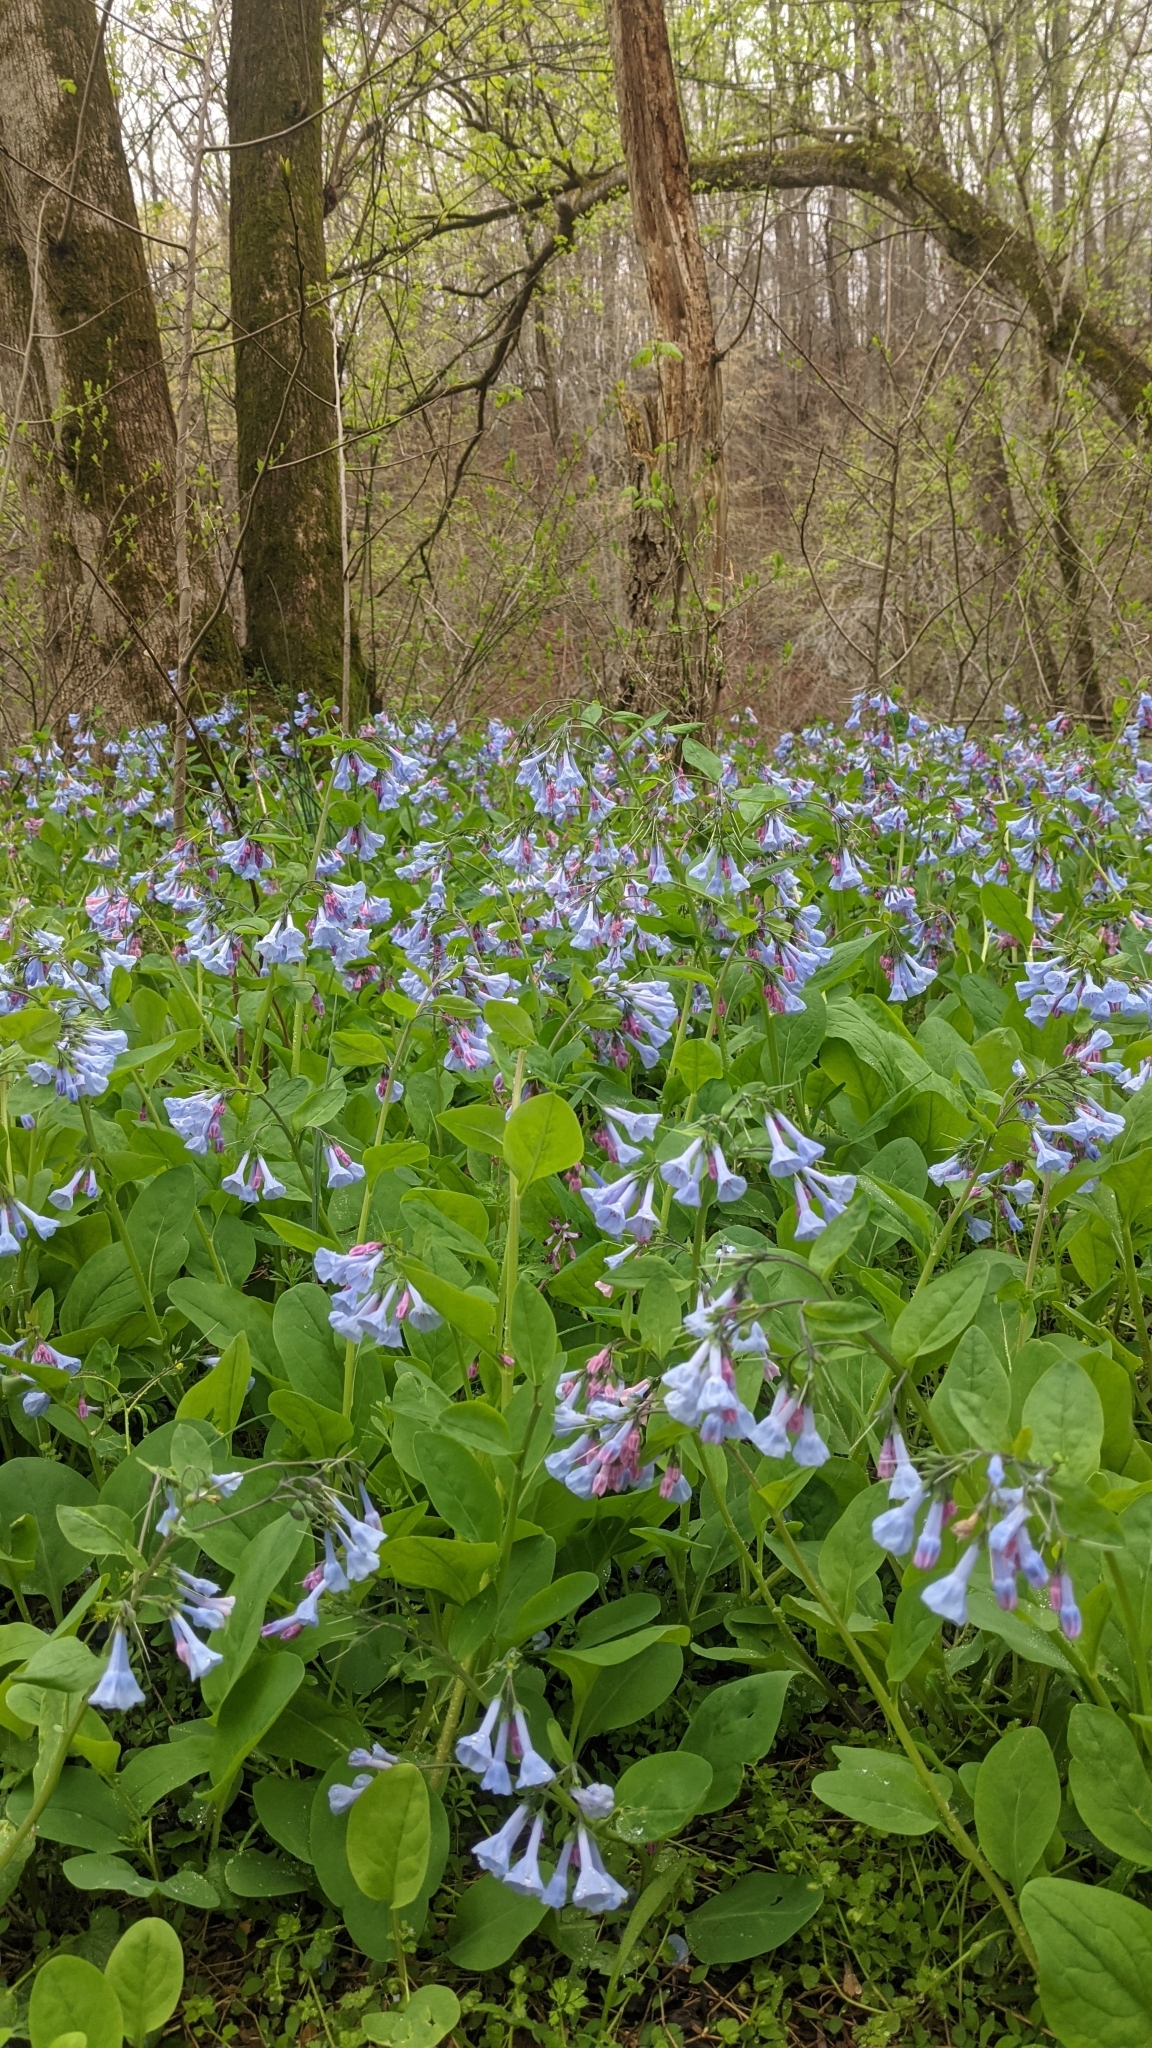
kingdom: Plantae
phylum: Tracheophyta
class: Magnoliopsida
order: Boraginales
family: Boraginaceae
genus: Mertensia
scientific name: Mertensia virginica
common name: Virginia bluebells
